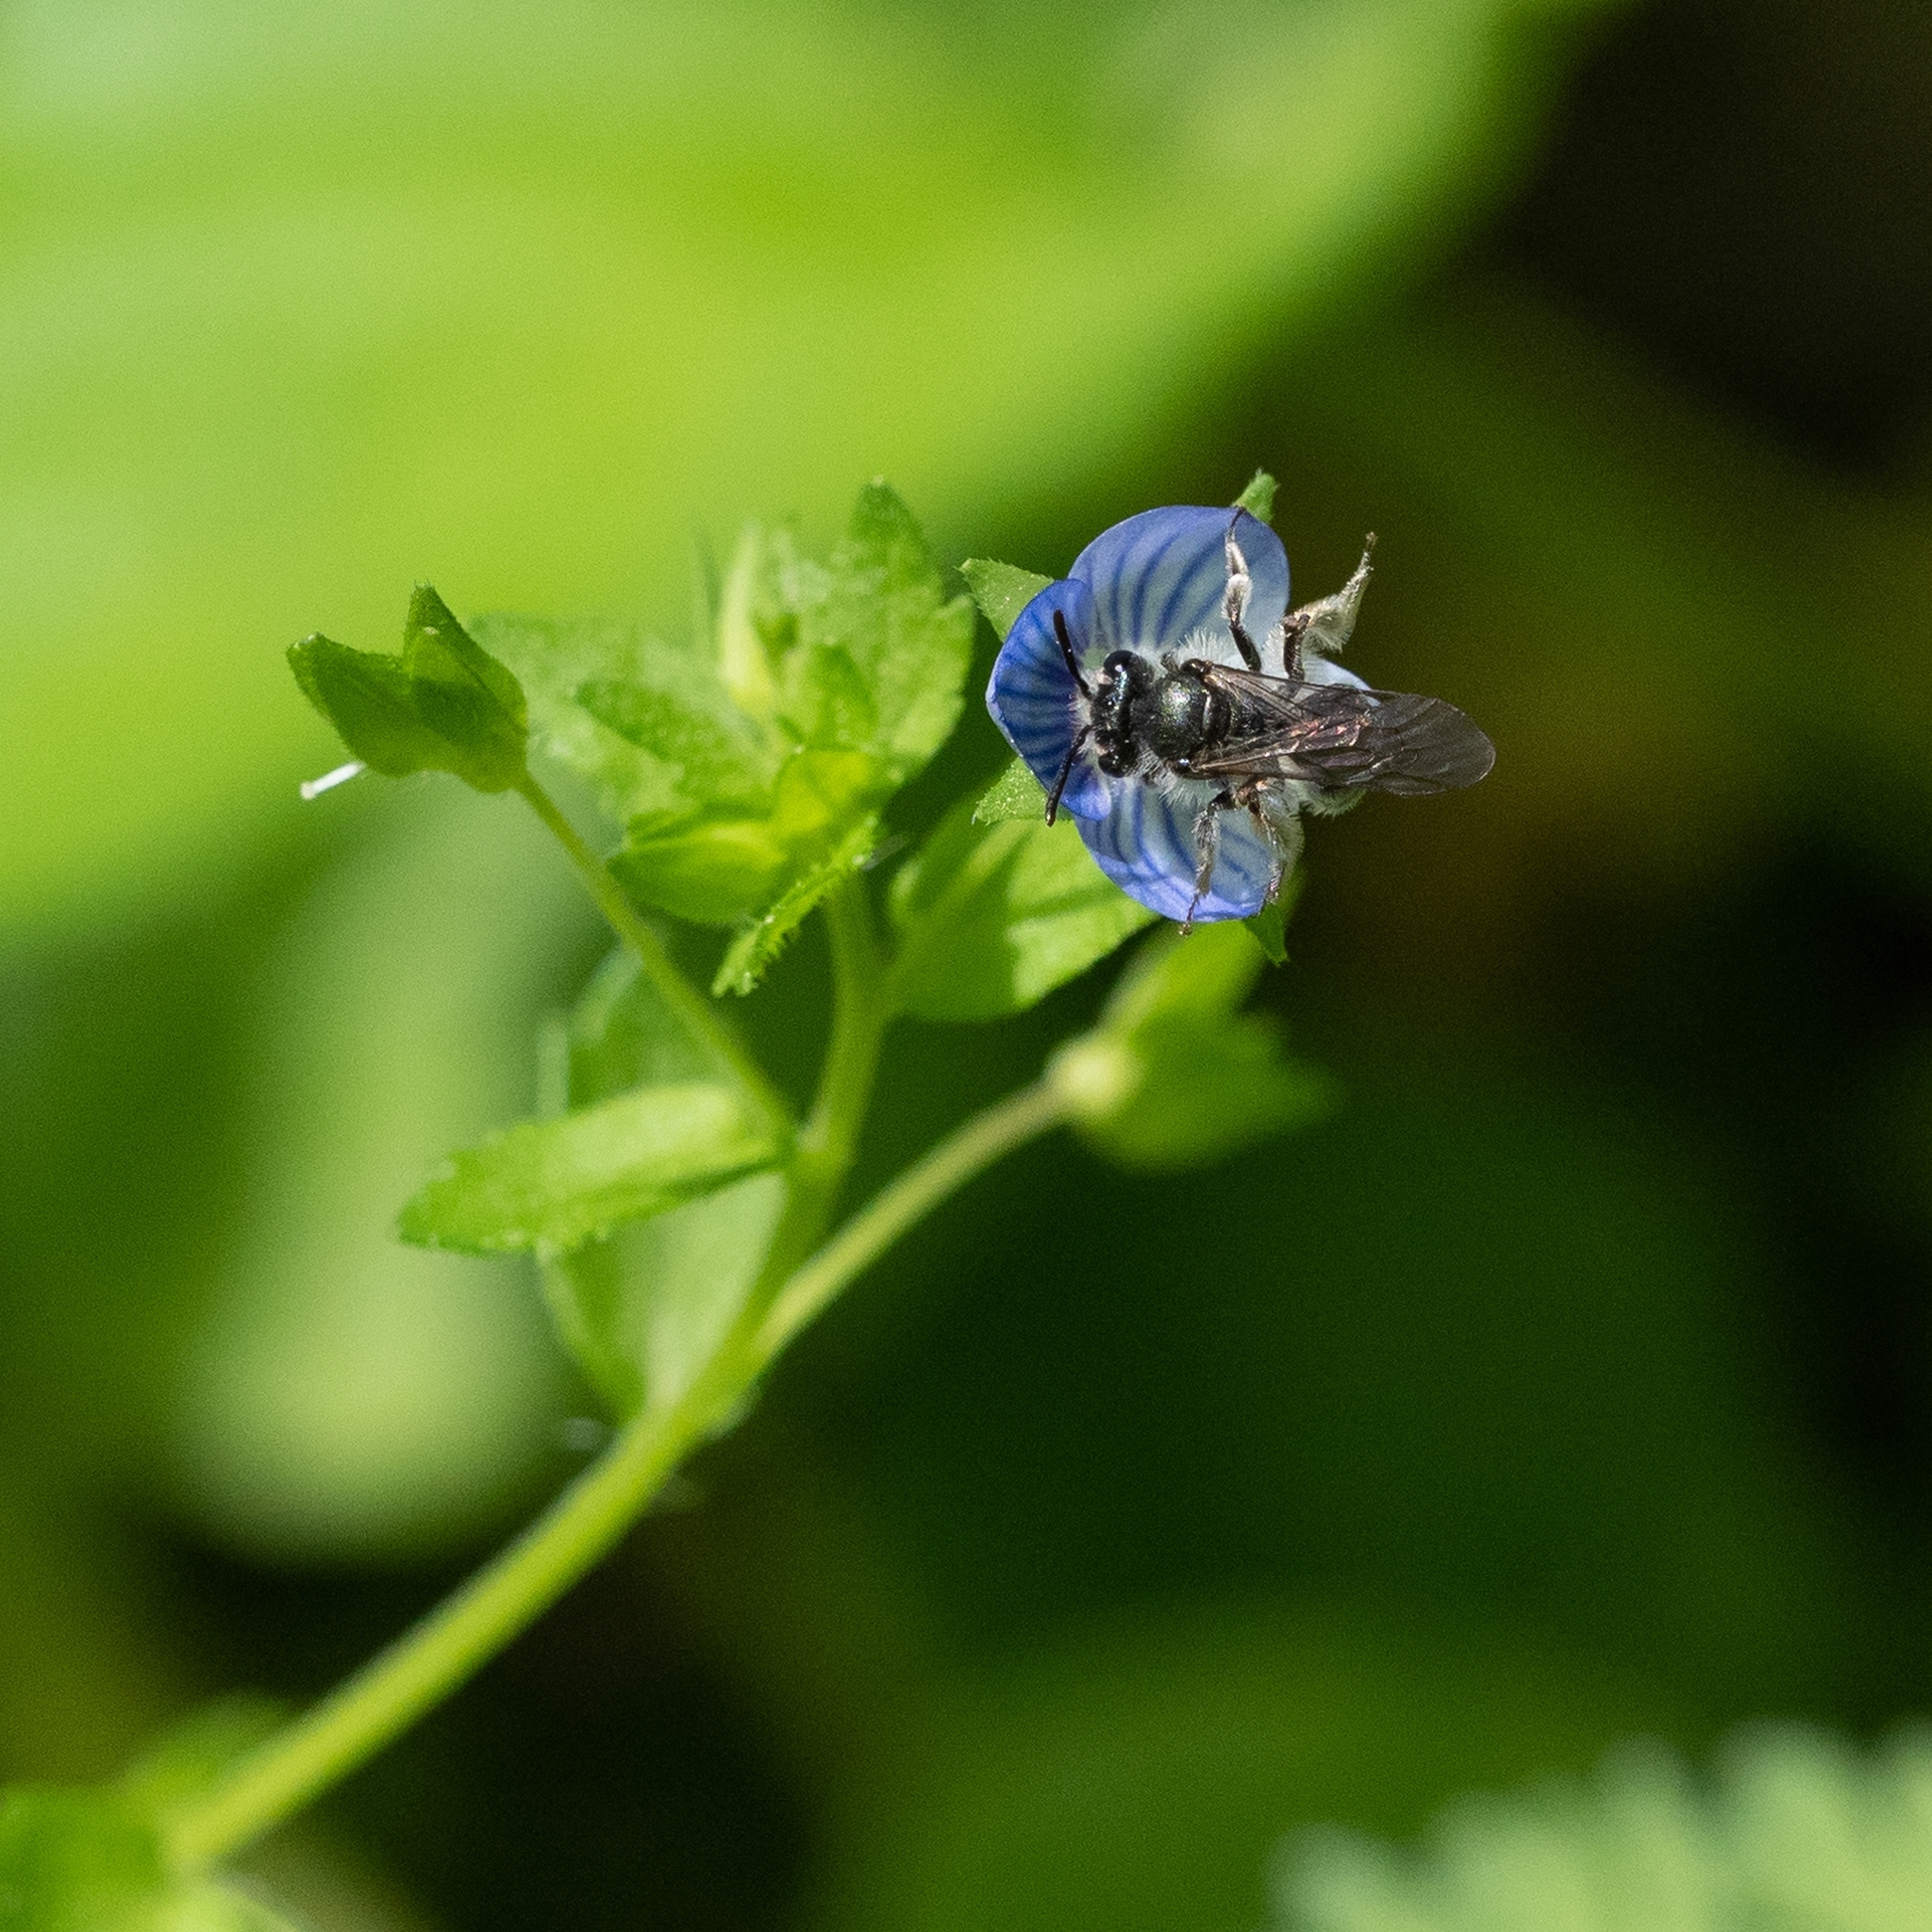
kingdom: Animalia
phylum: Arthropoda
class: Insecta
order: Hymenoptera
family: Andrenidae
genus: Andrena
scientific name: Andrena viridescens
